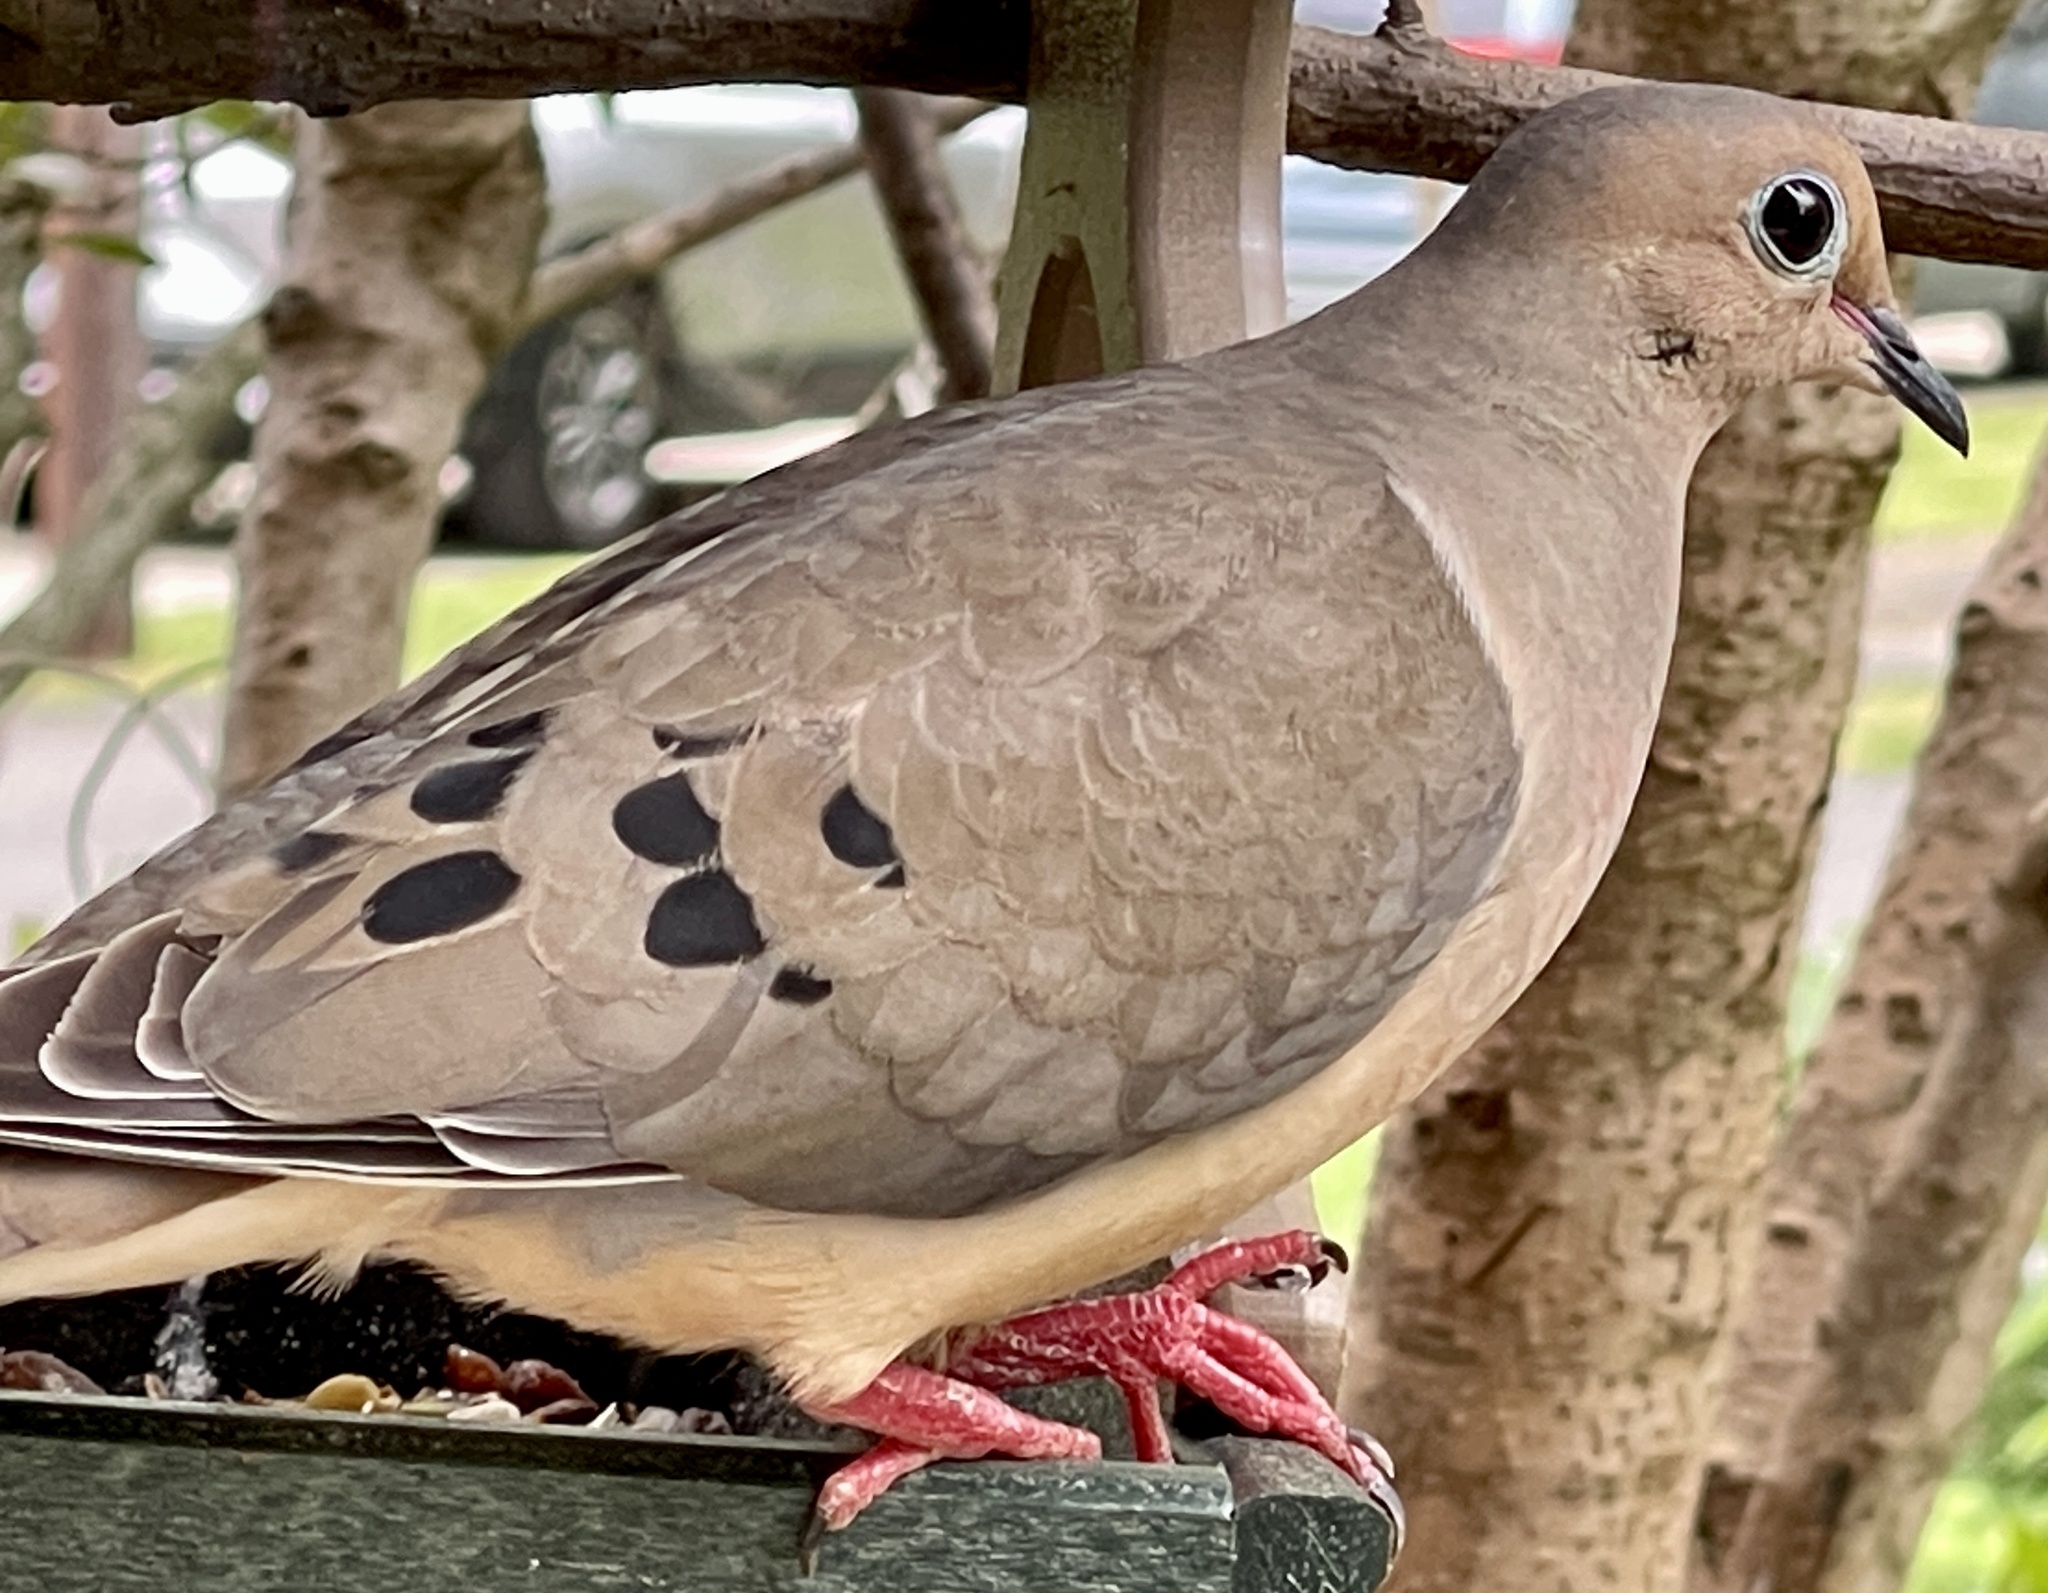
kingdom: Animalia
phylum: Chordata
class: Aves
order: Columbiformes
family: Columbidae
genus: Zenaida
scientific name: Zenaida macroura
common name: Mourning dove
